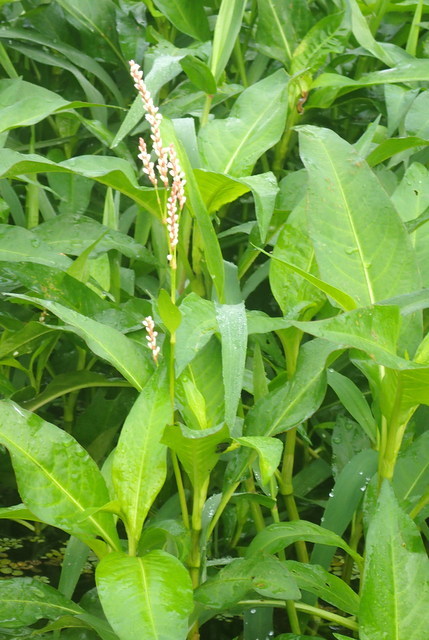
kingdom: Plantae
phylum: Tracheophyta
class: Magnoliopsida
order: Caryophyllales
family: Polygonaceae
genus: Persicaria
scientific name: Persicaria hydropiperoides
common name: Swamp smartweed
